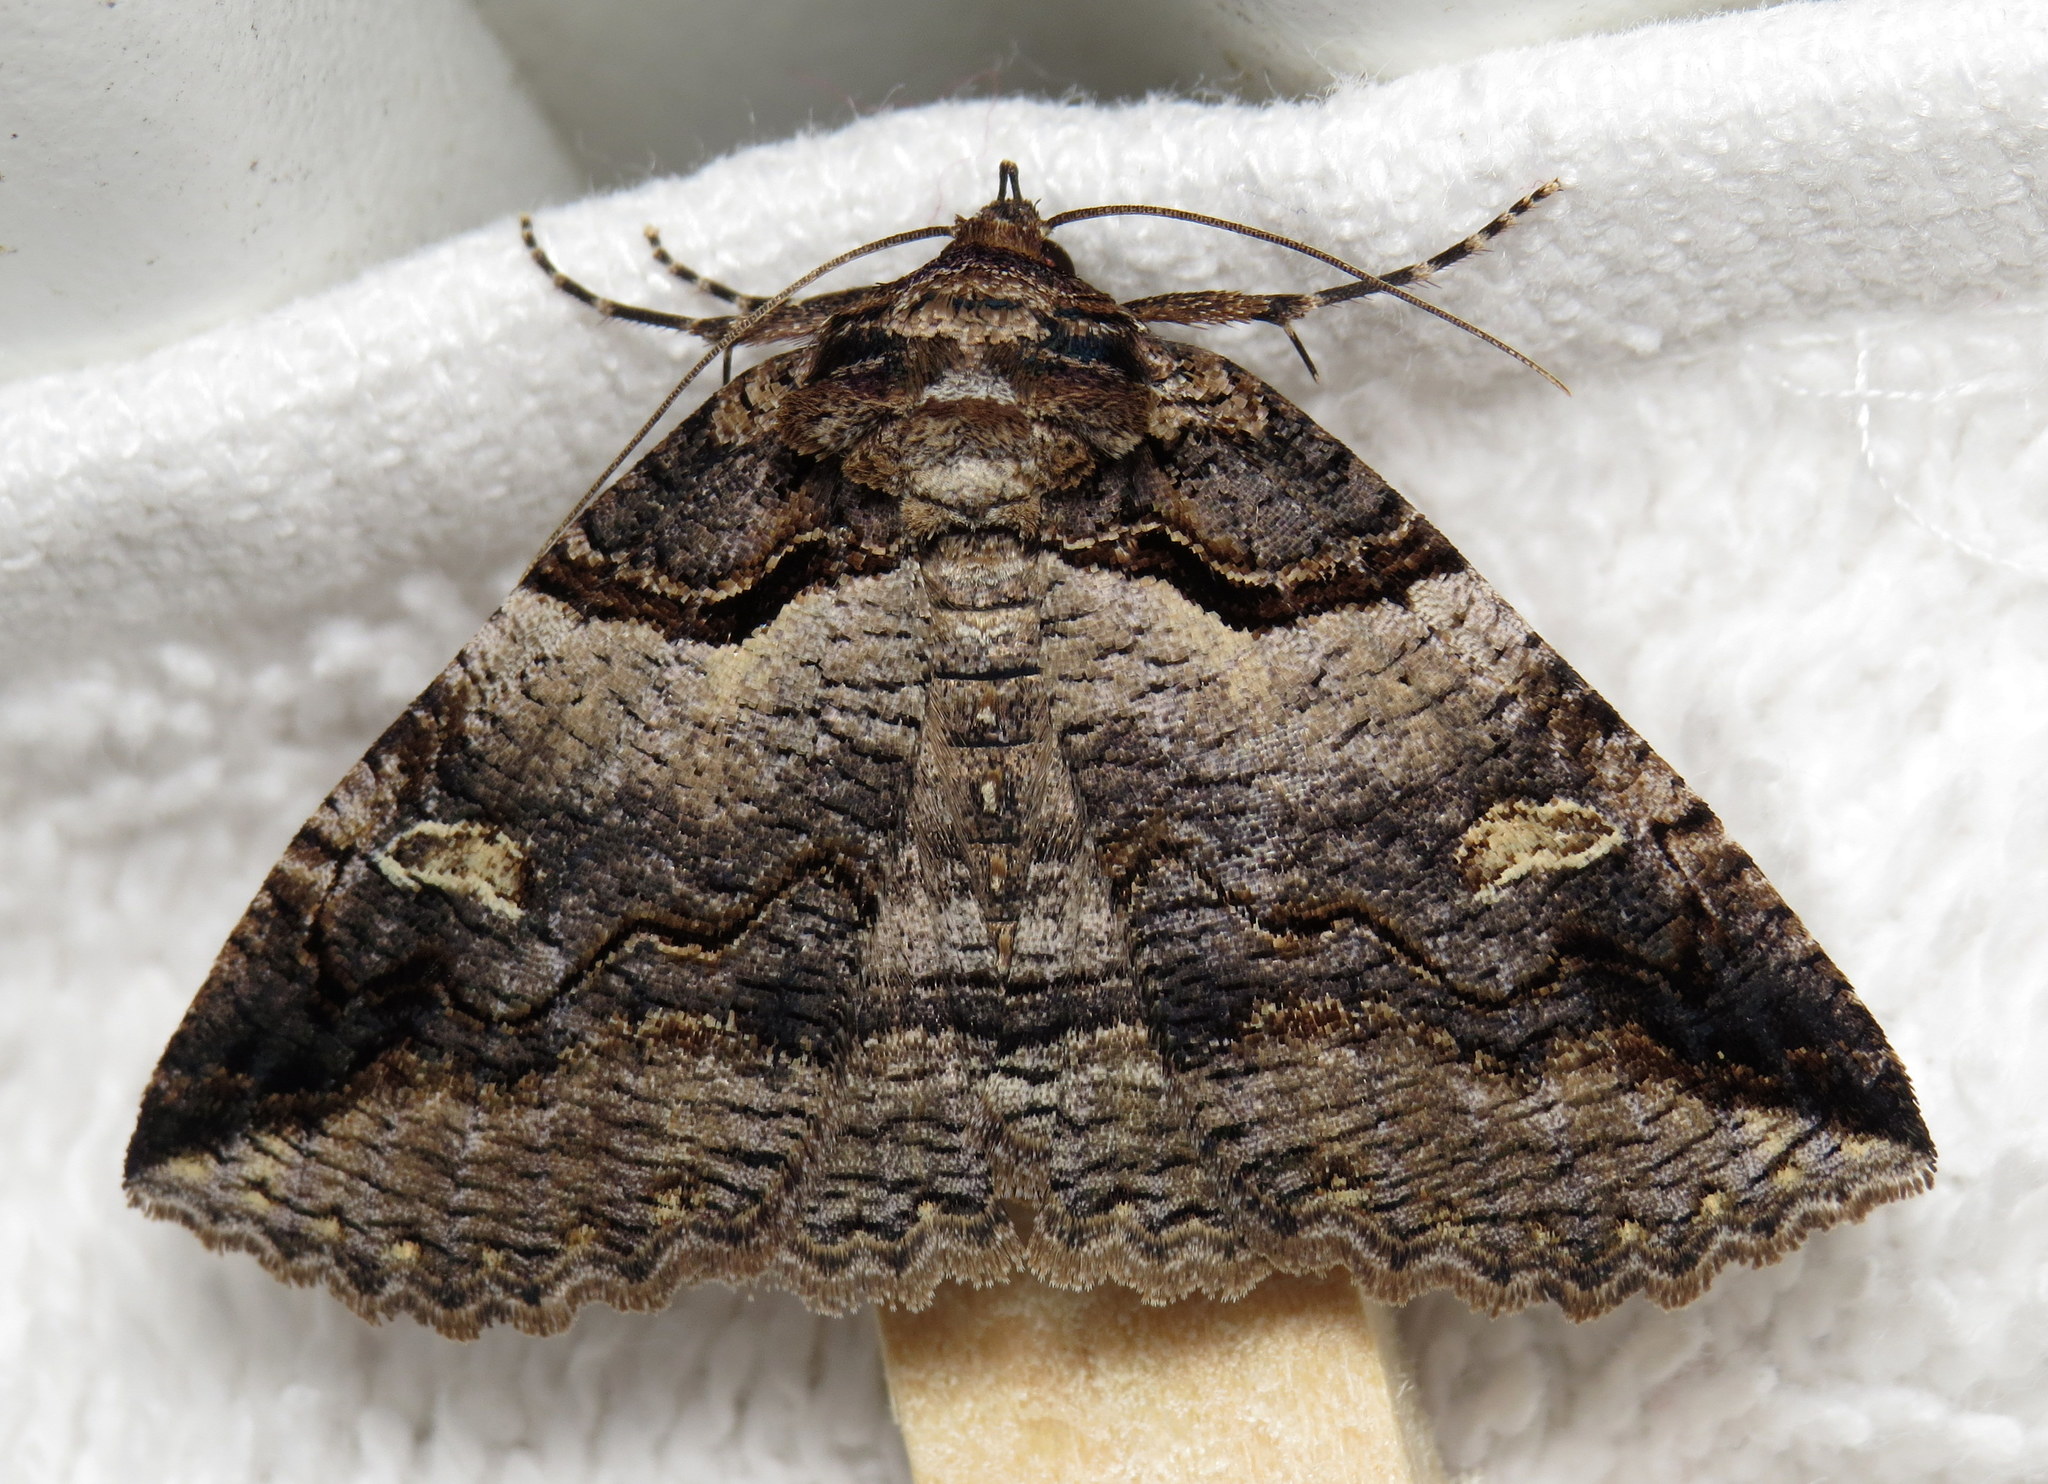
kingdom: Animalia
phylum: Arthropoda
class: Insecta
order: Lepidoptera
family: Erebidae
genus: Zale
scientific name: Zale intenta
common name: Intent zale moth
